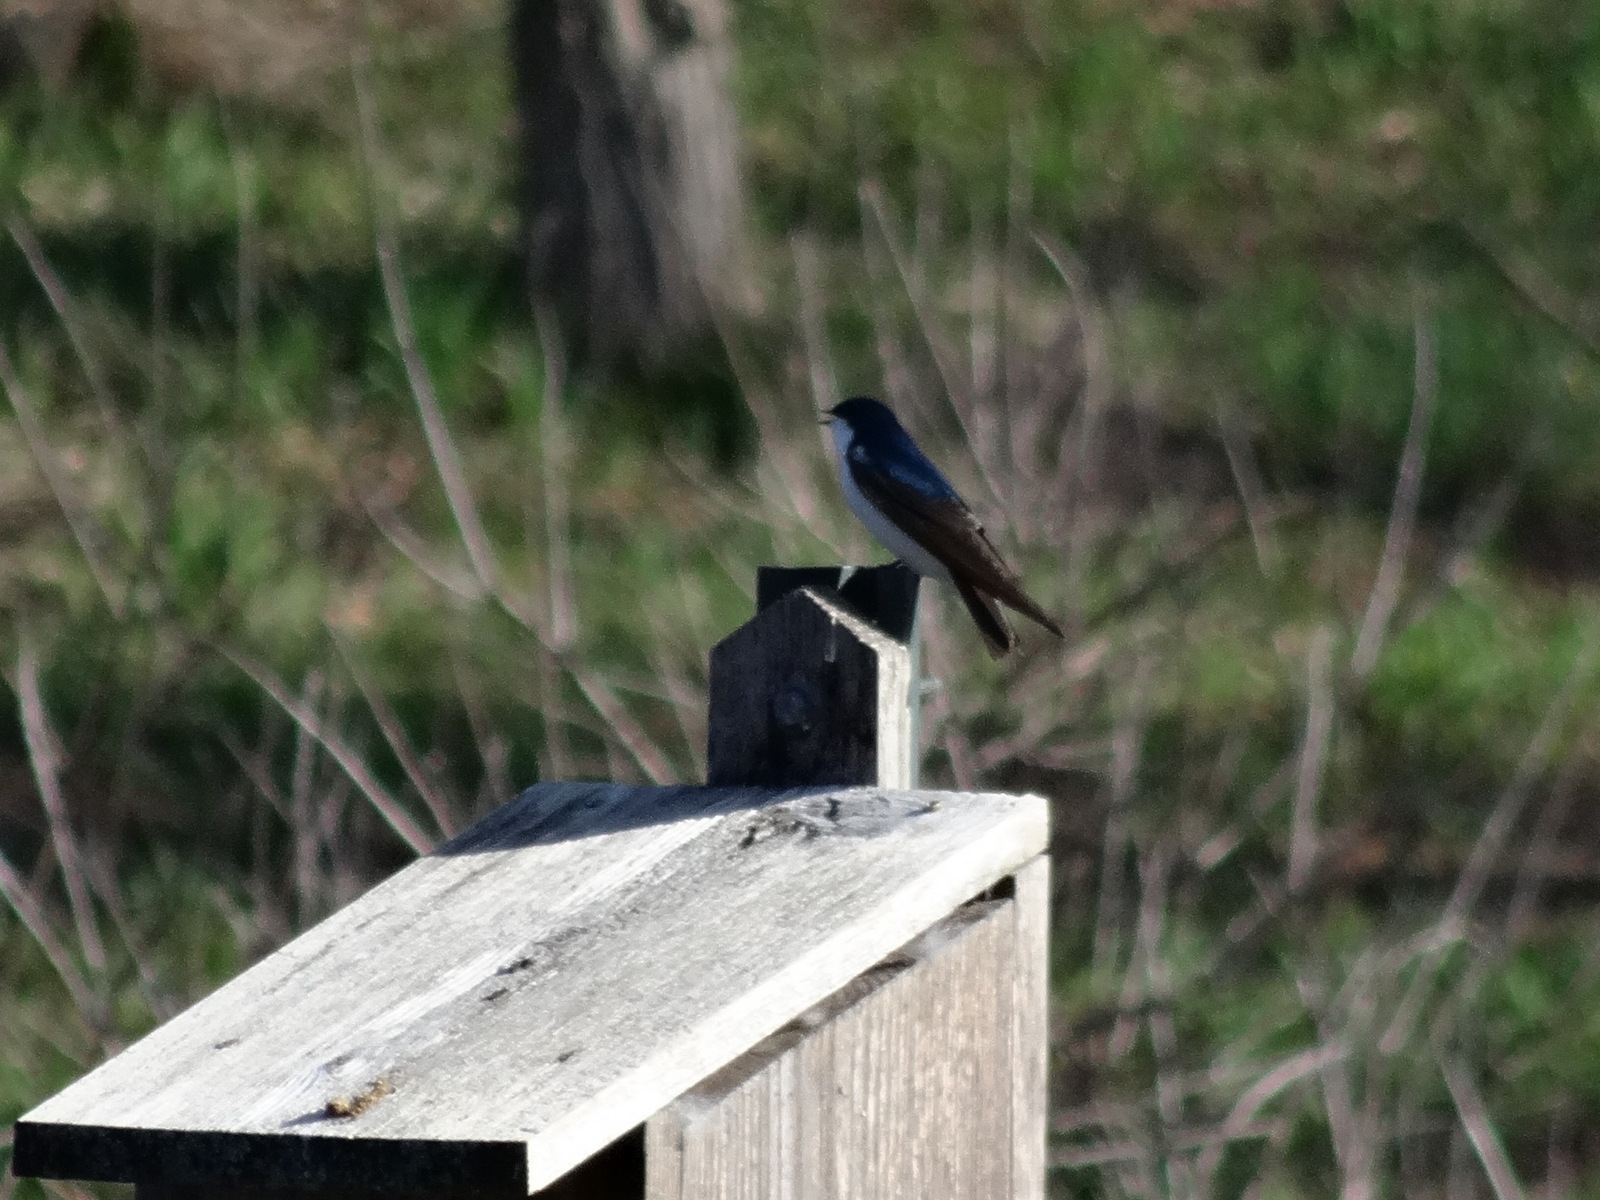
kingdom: Animalia
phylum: Chordata
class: Aves
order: Passeriformes
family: Hirundinidae
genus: Tachycineta
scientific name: Tachycineta bicolor
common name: Tree swallow
